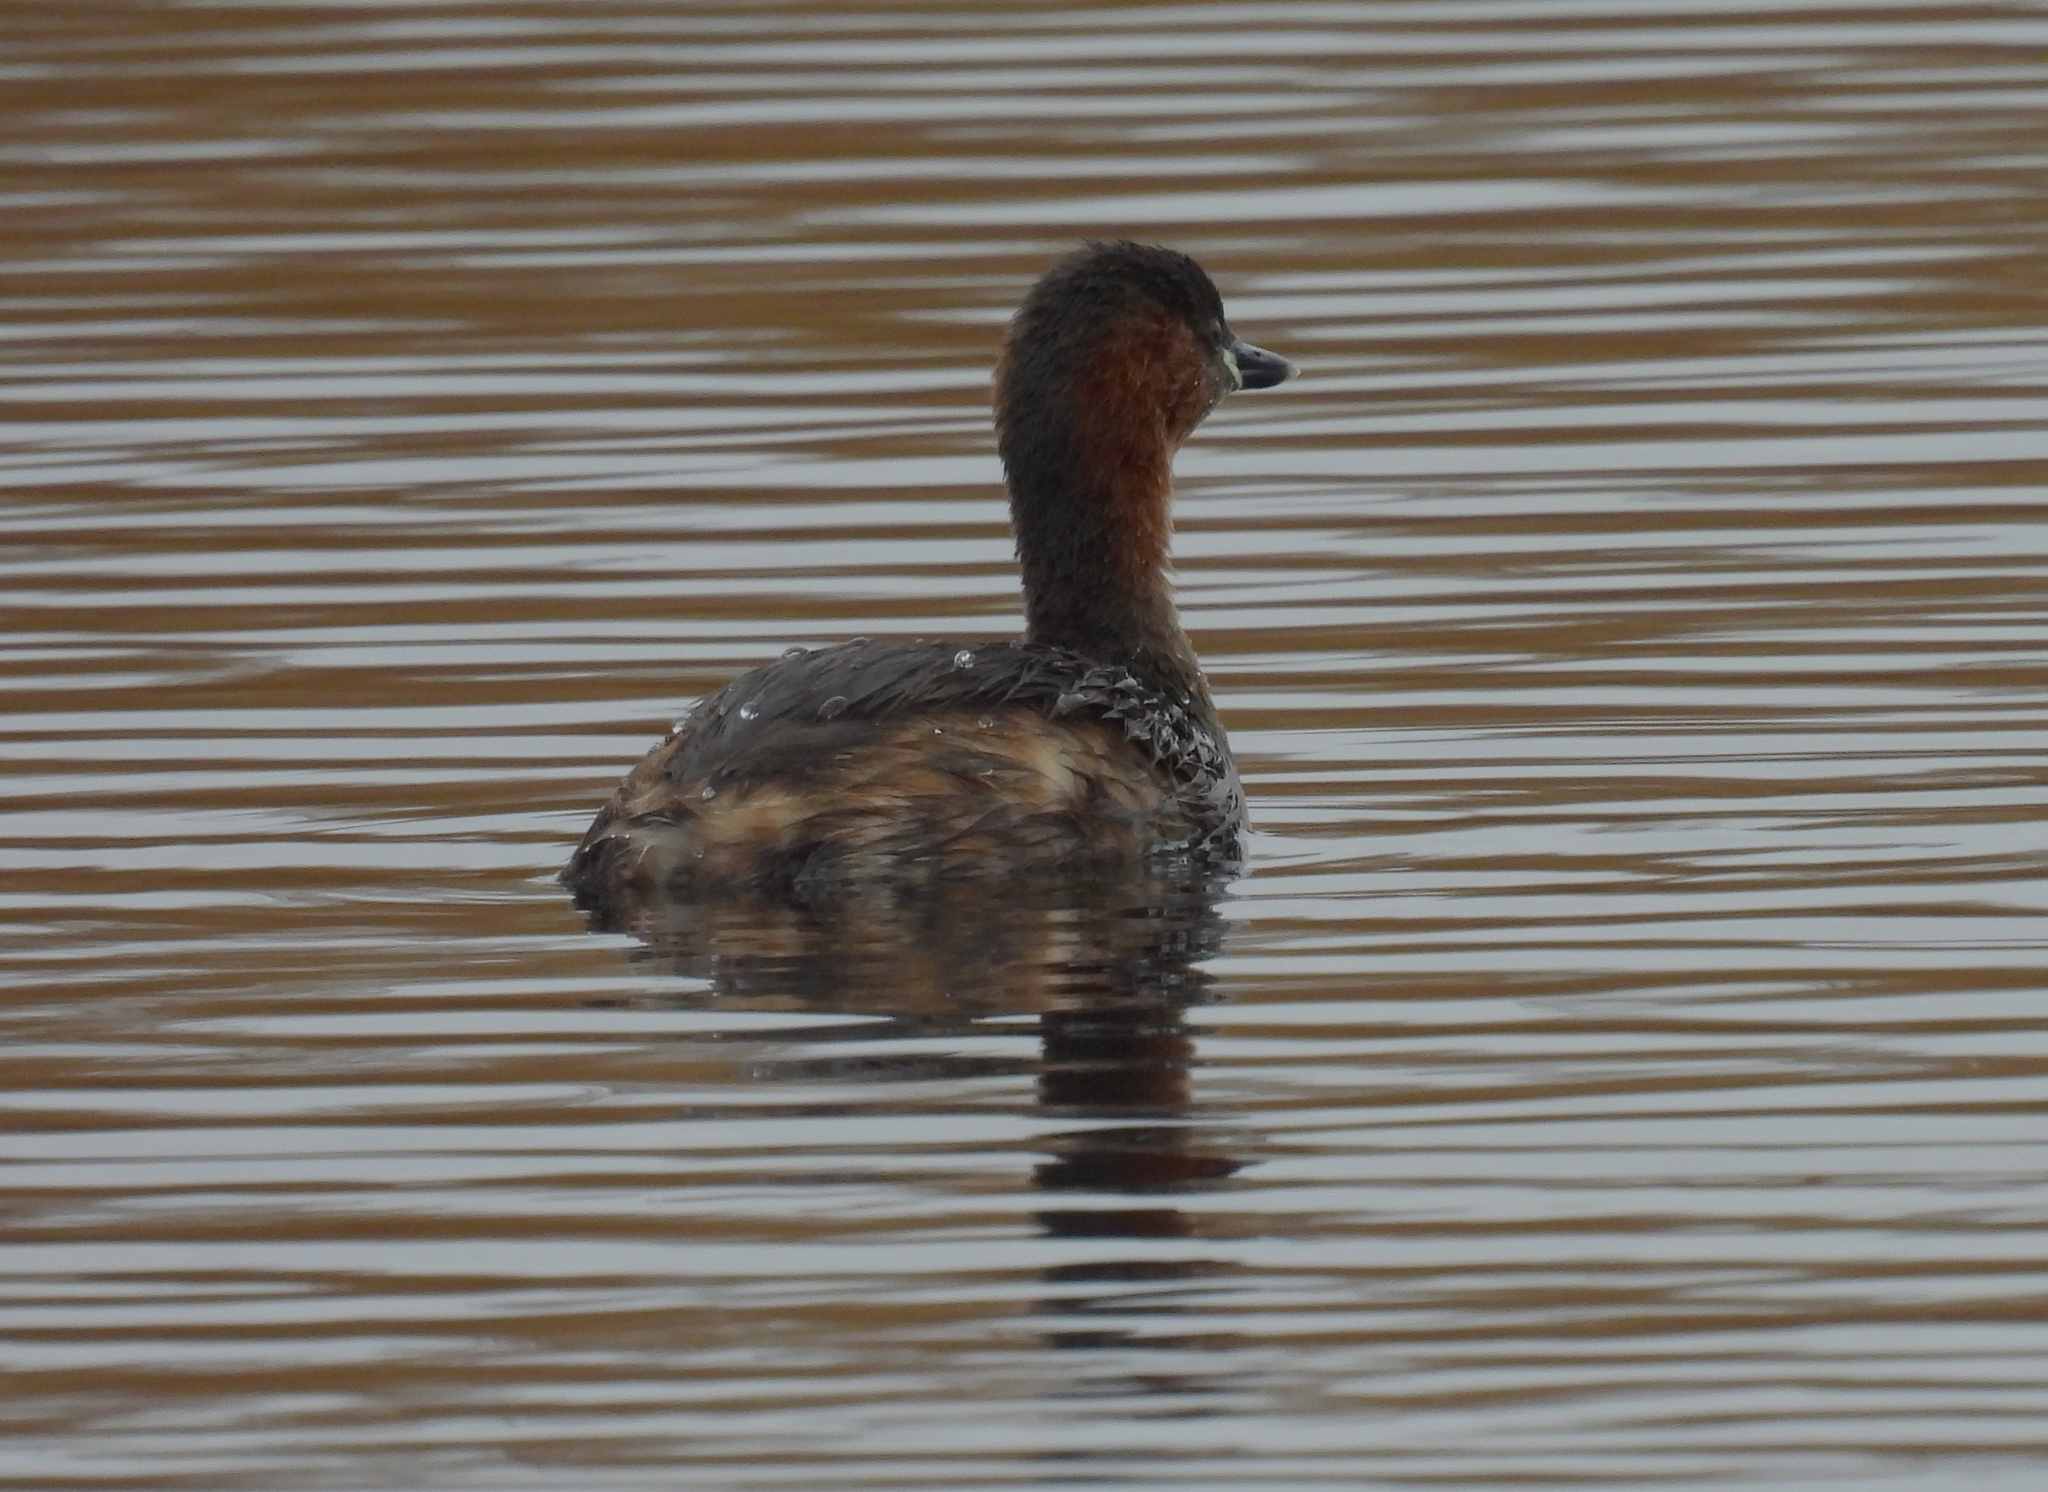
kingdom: Animalia
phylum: Chordata
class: Aves
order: Podicipediformes
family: Podicipedidae
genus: Tachybaptus
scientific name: Tachybaptus ruficollis
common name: Little grebe
